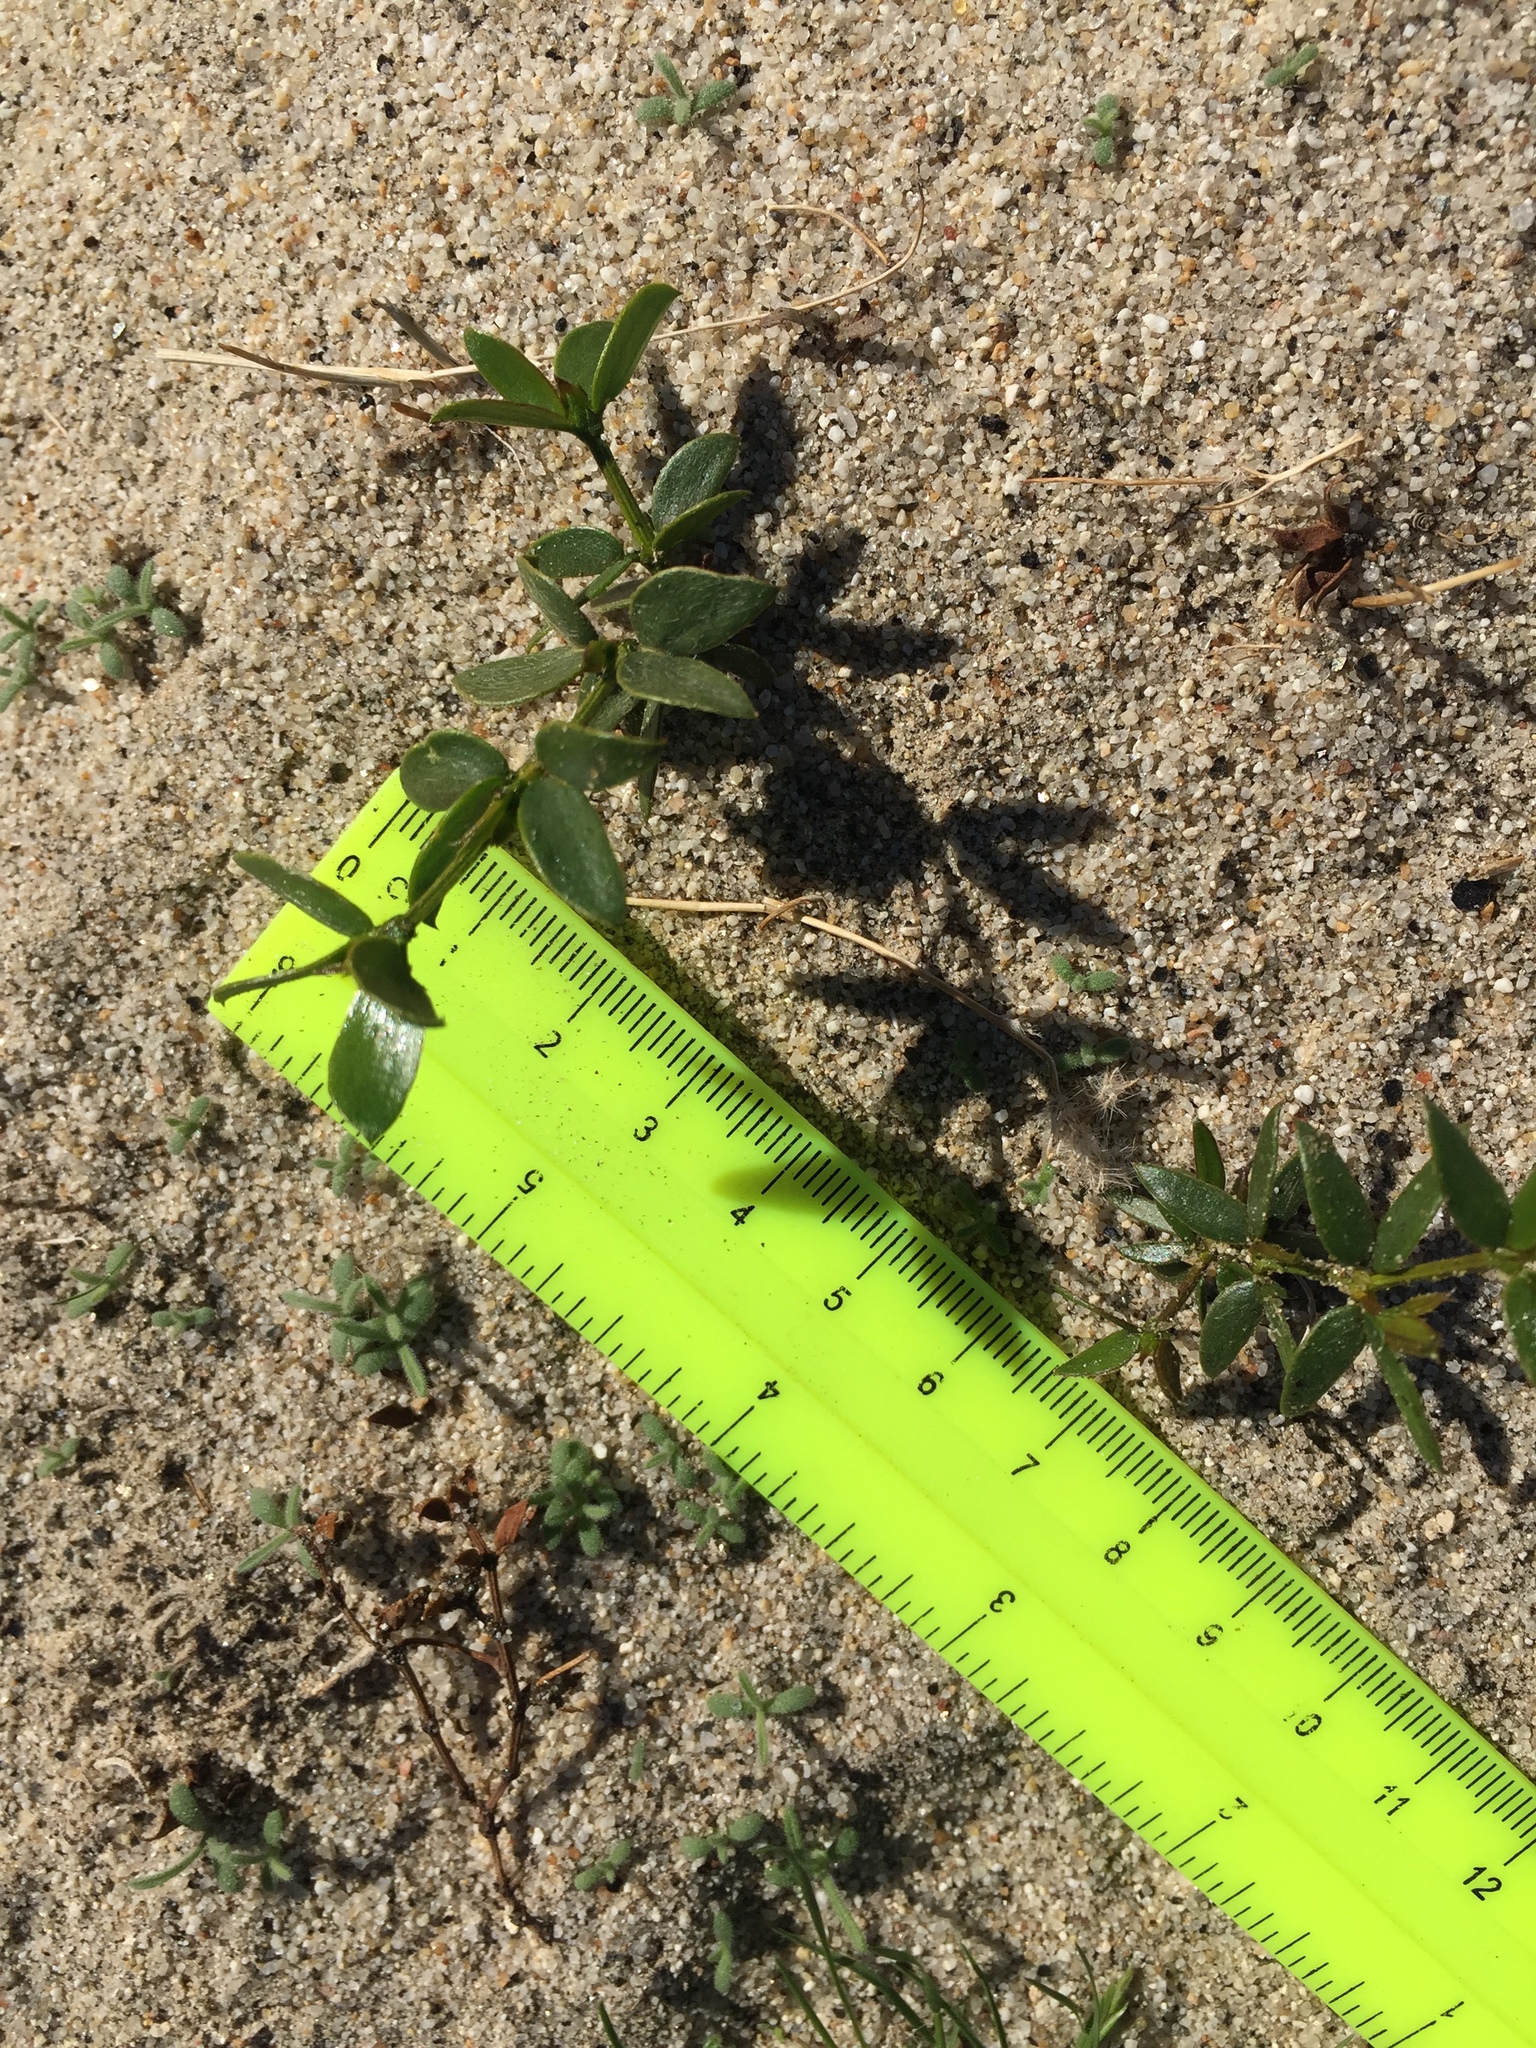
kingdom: Plantae
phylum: Tracheophyta
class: Magnoliopsida
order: Zygophyllales
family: Zygophyllaceae
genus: Larrea
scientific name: Larrea tridentata
